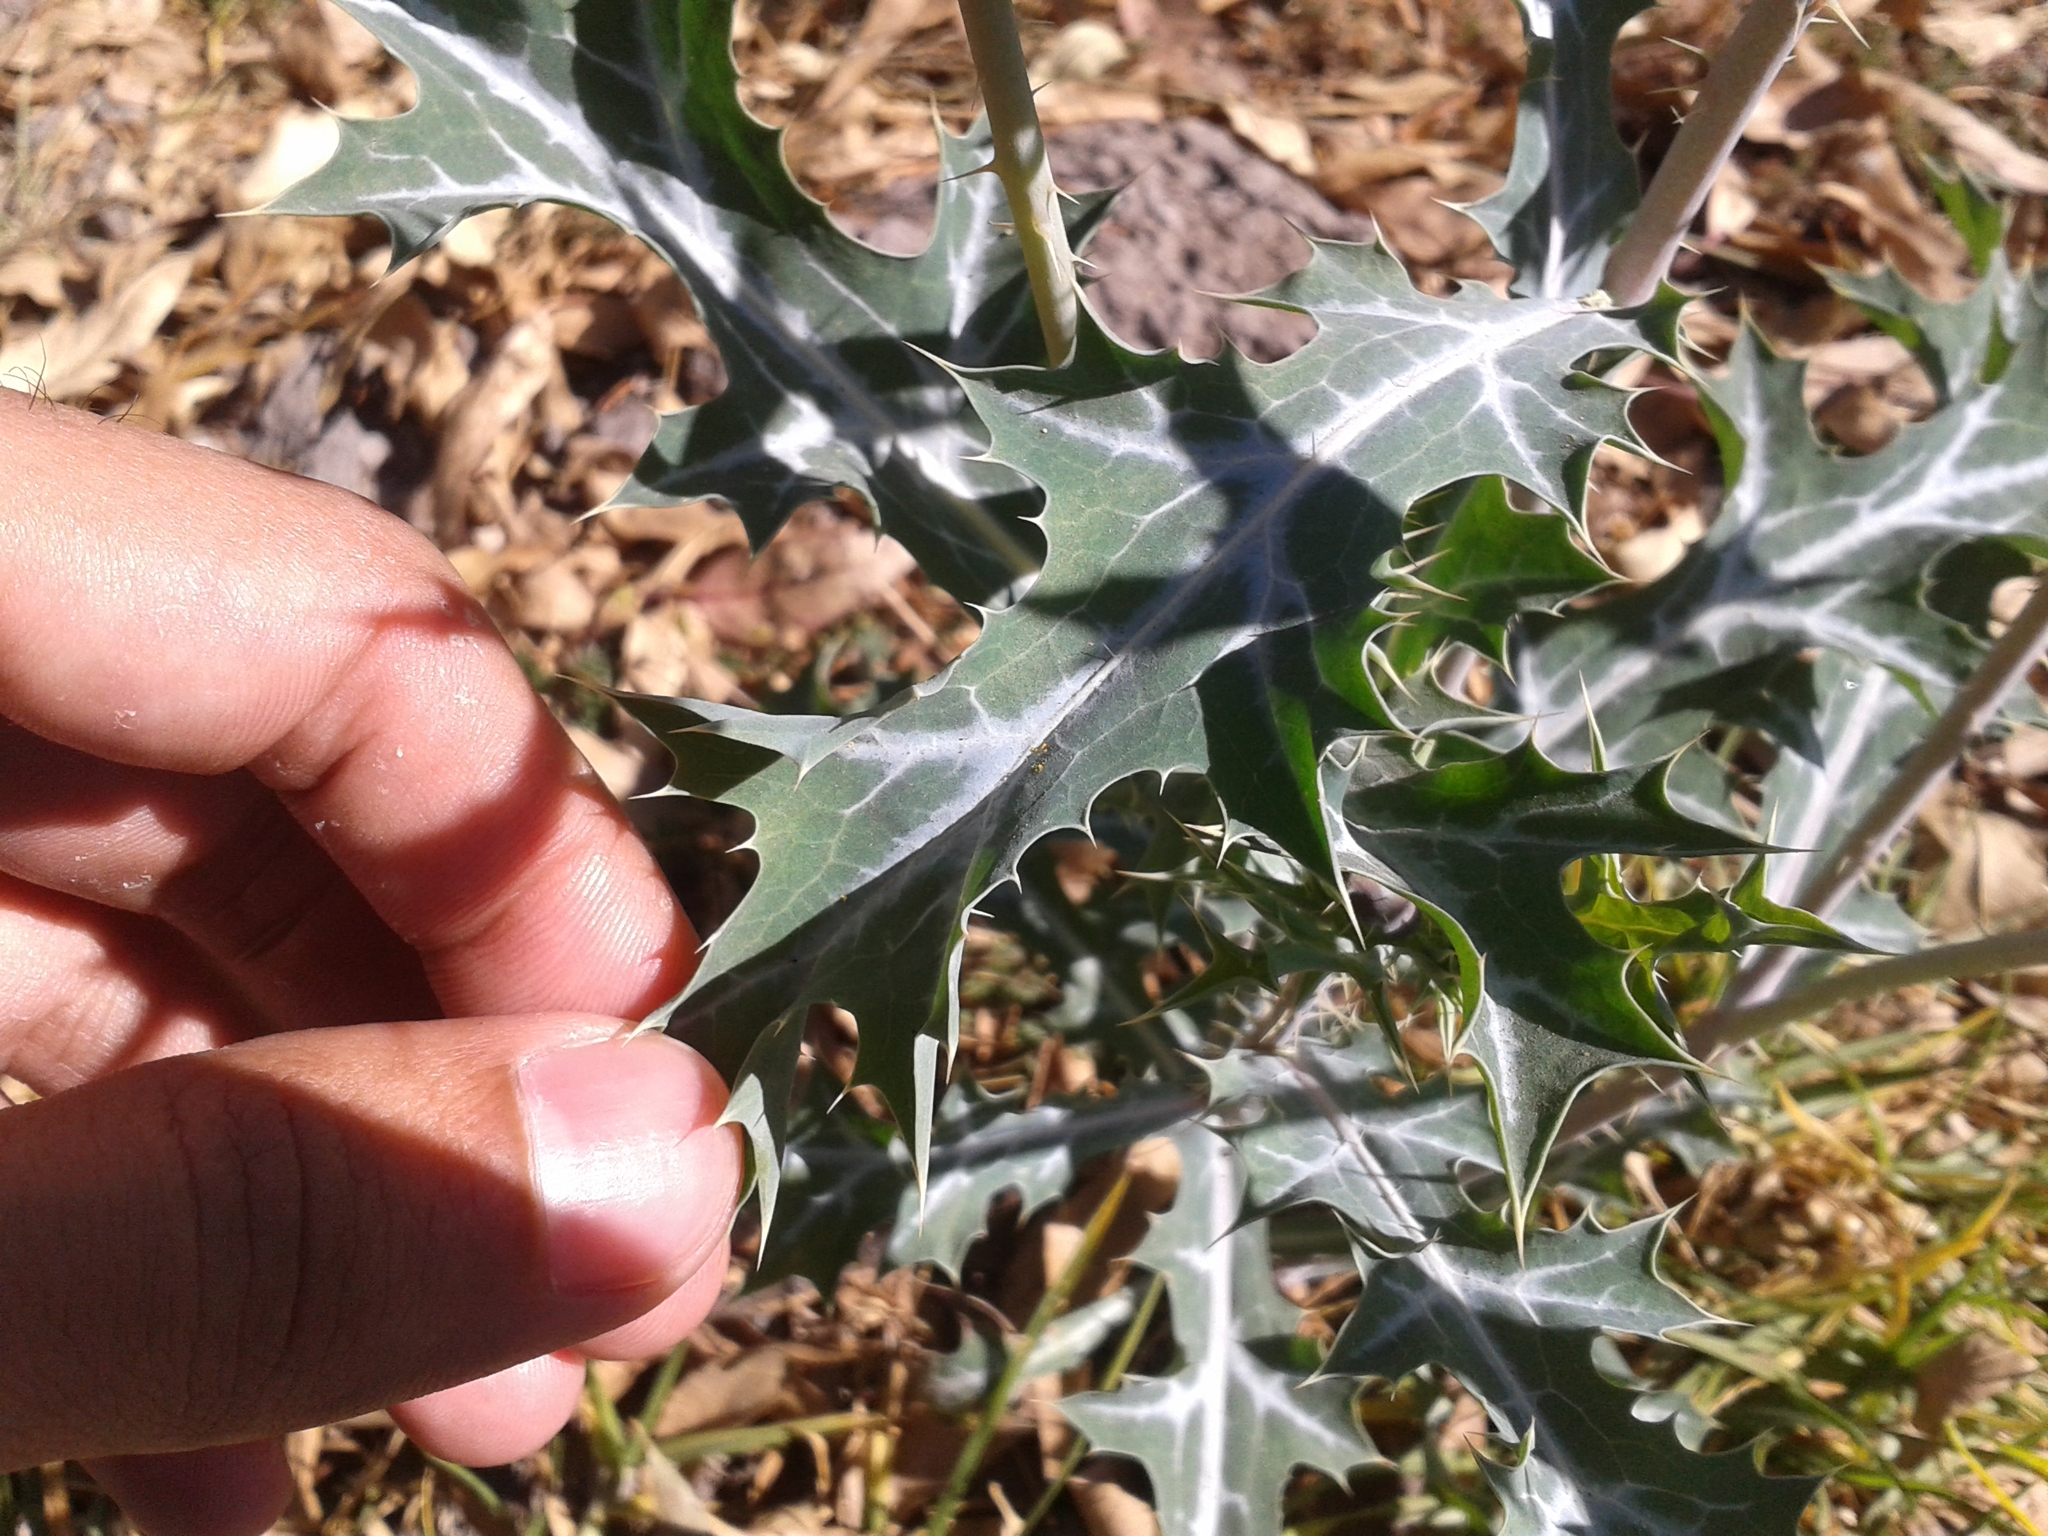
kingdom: Plantae
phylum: Tracheophyta
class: Magnoliopsida
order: Ranunculales
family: Papaveraceae
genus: Argemone
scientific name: Argemone ochroleuca
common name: White-flower mexican-poppy
